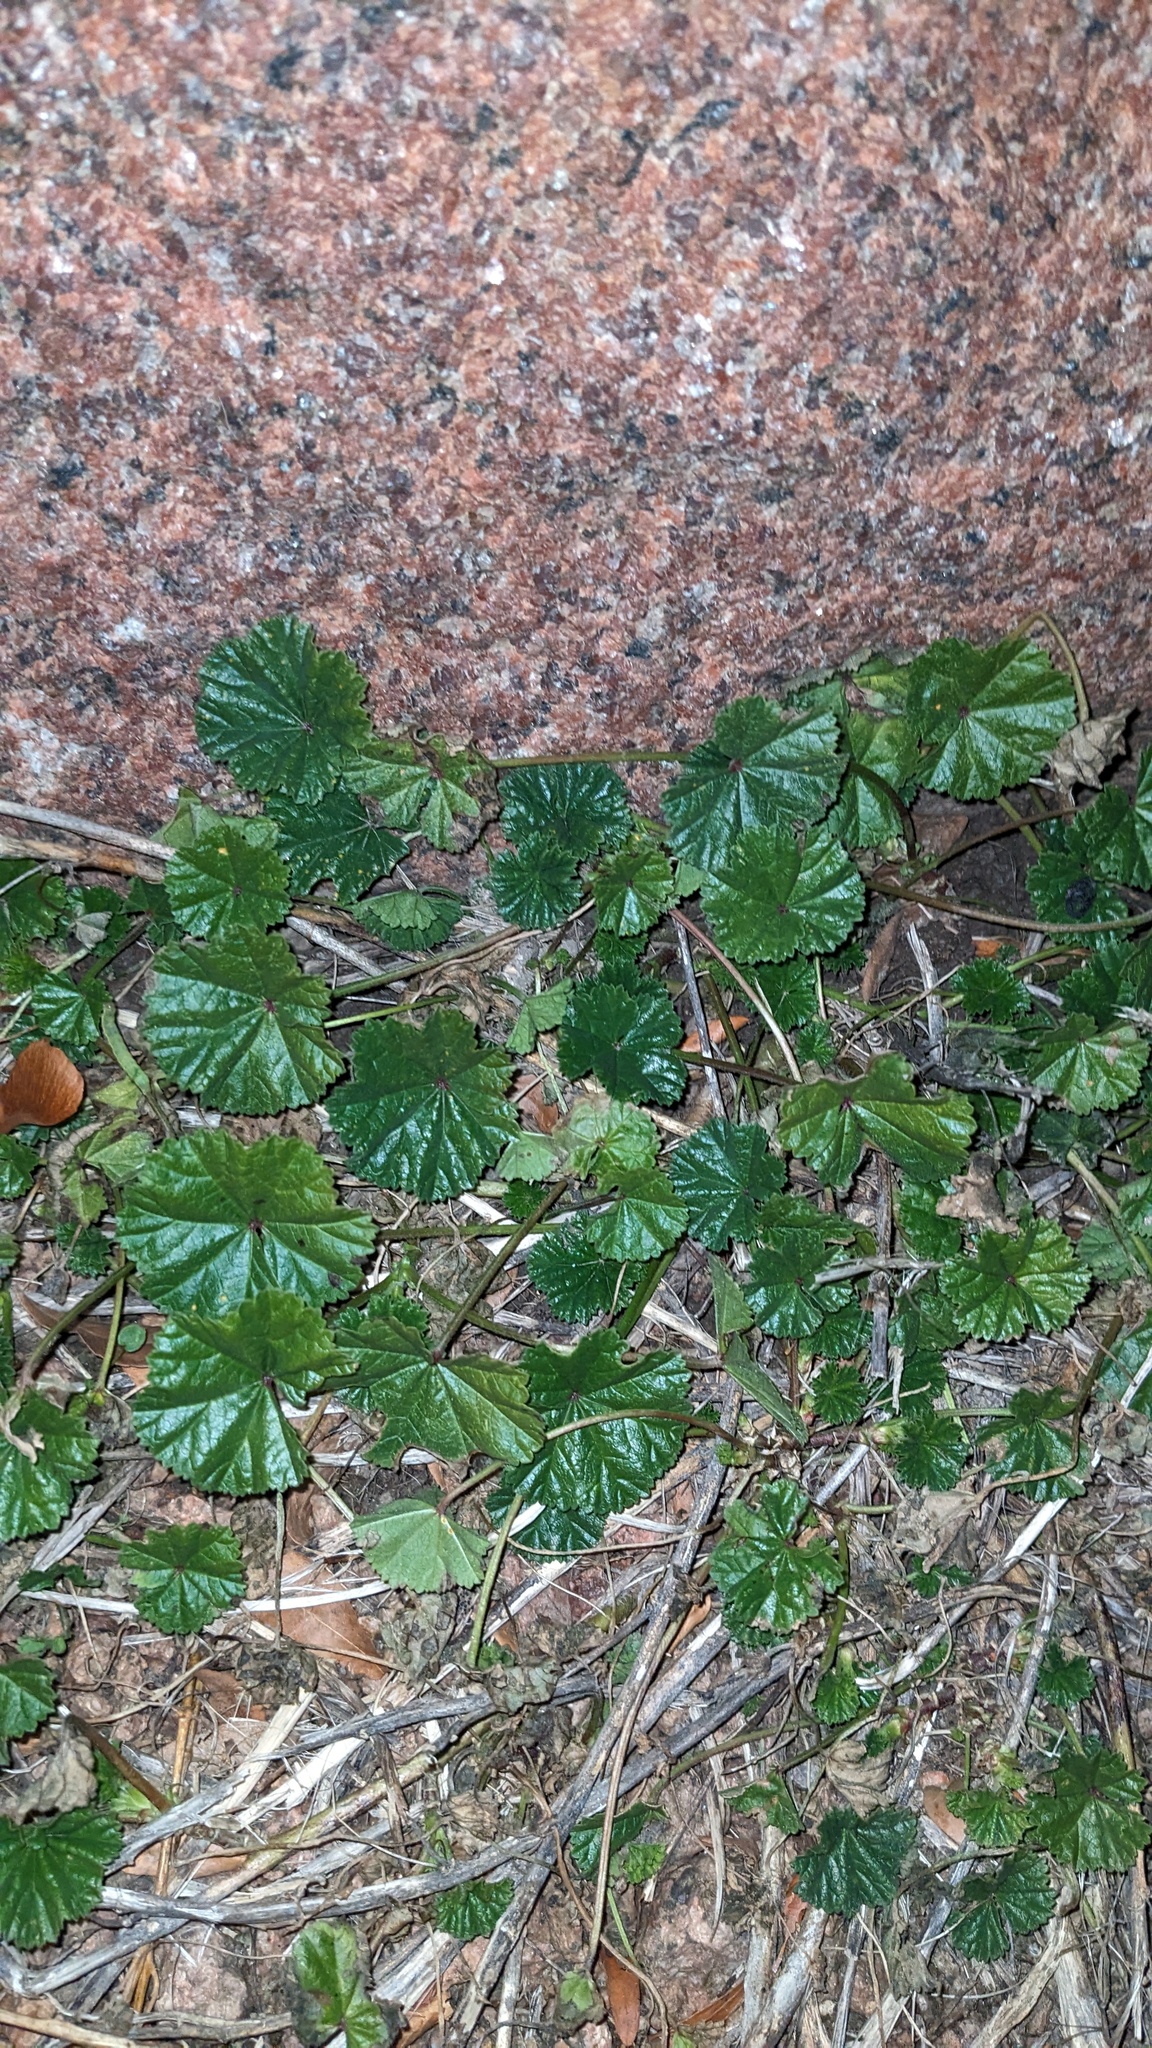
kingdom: Plantae
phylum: Tracheophyta
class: Magnoliopsida
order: Malvales
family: Malvaceae
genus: Malva
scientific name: Malva neglecta
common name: Common mallow
